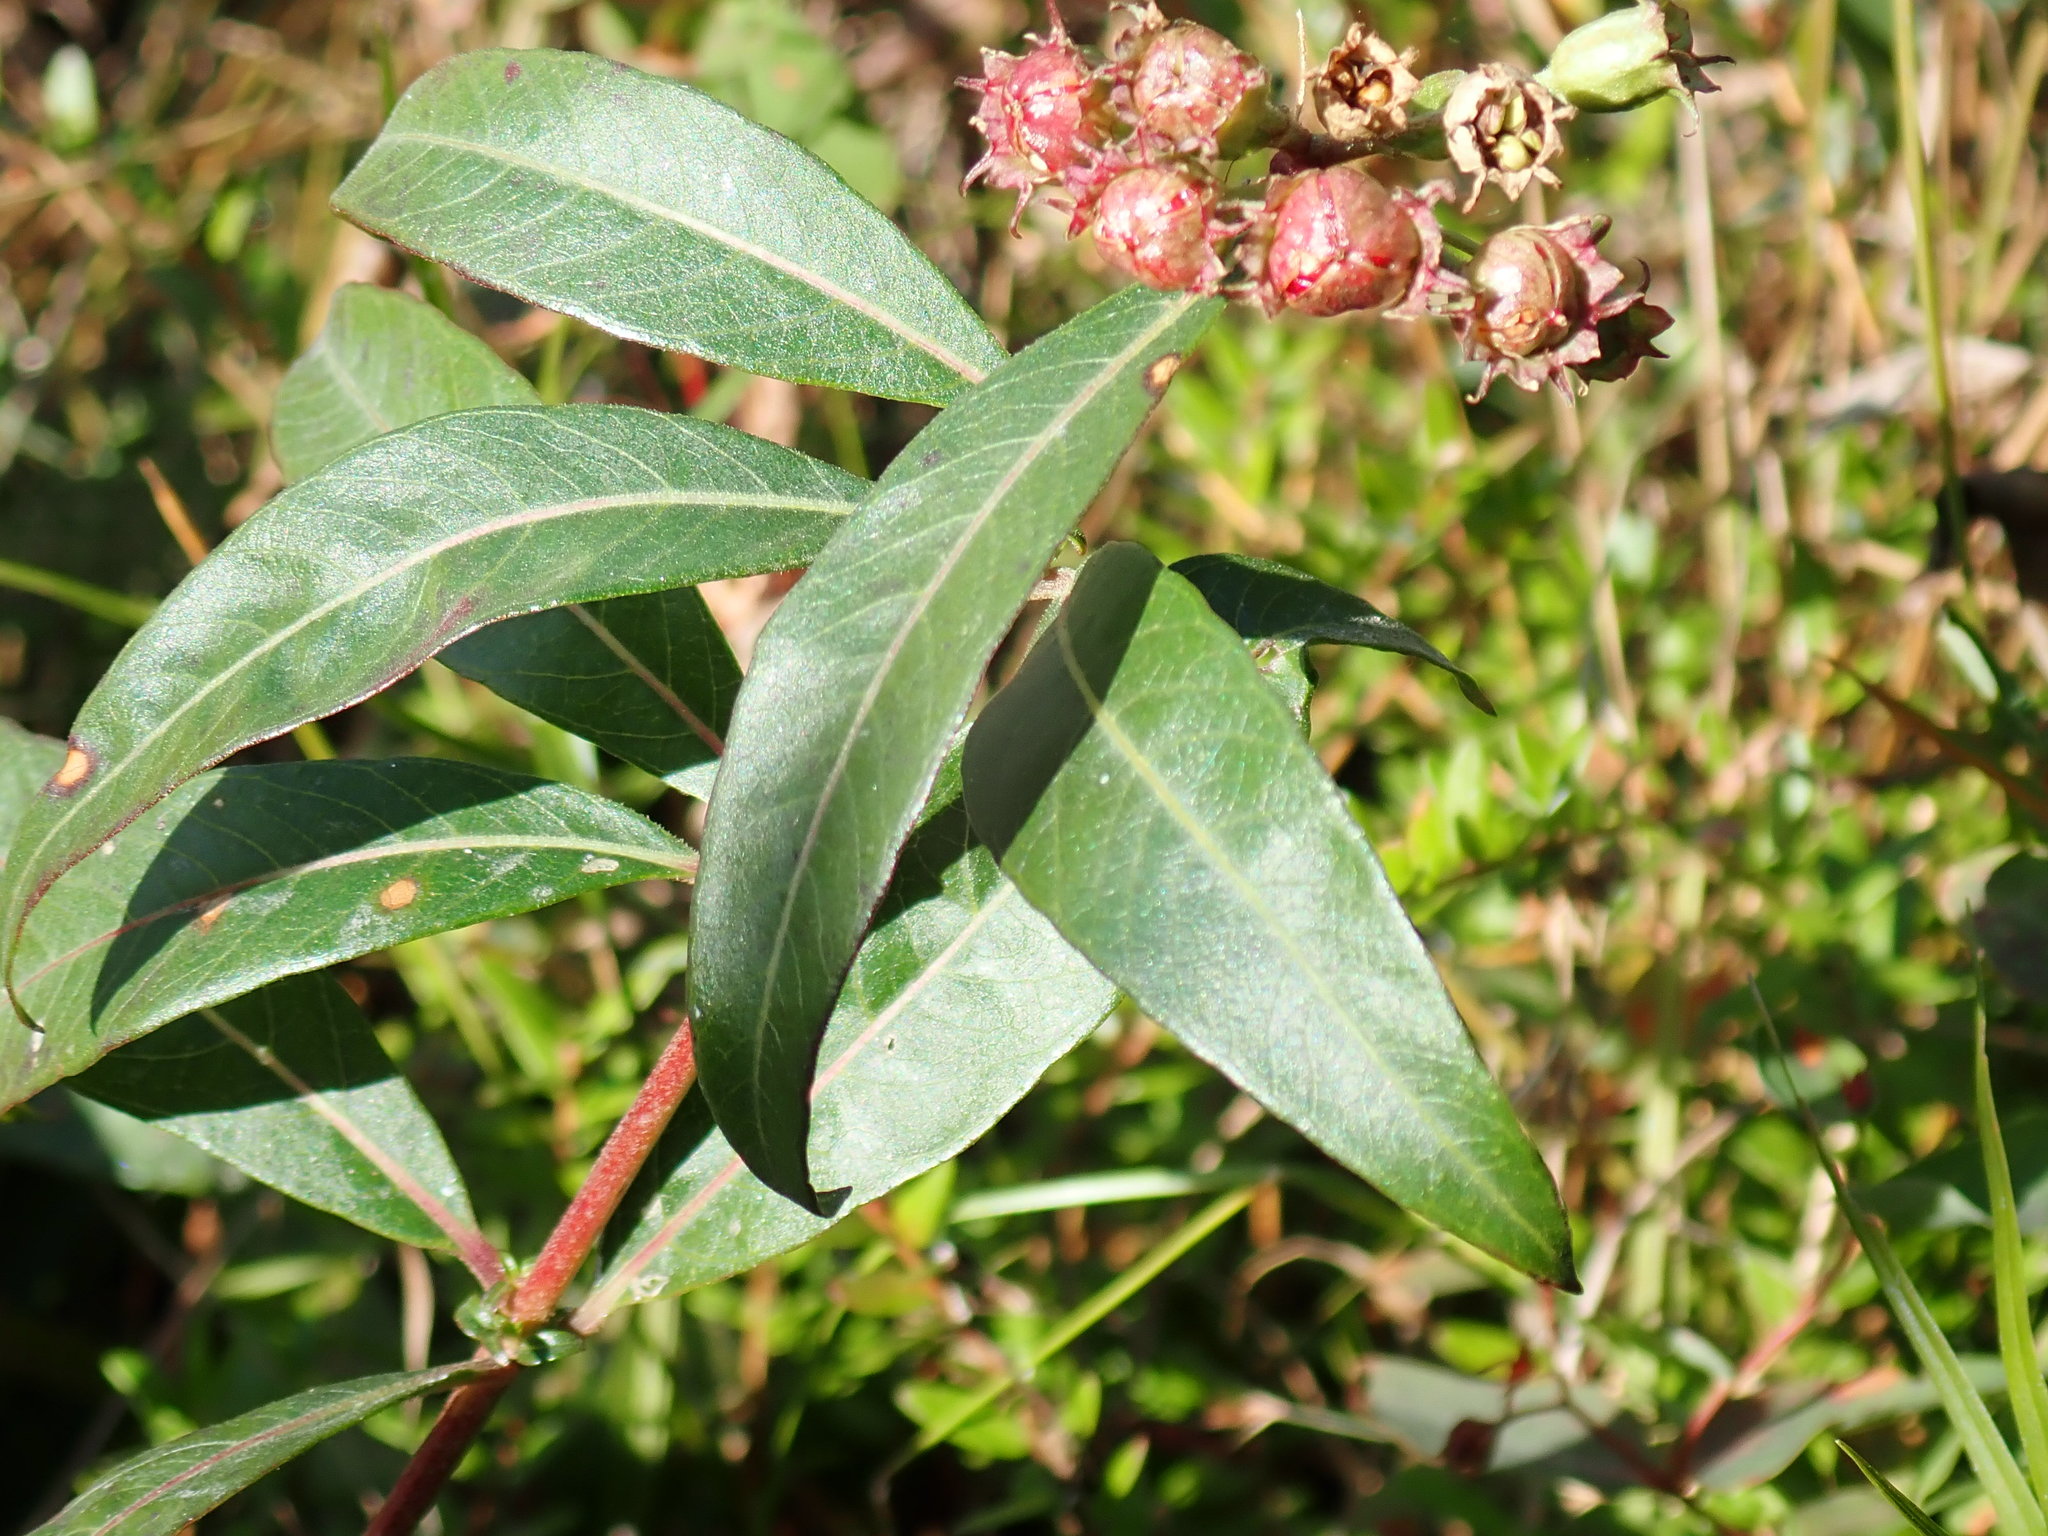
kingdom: Plantae
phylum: Tracheophyta
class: Magnoliopsida
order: Myrtales
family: Lythraceae
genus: Decodon
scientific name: Decodon verticillatus
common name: Hairy swamp loosestrife
